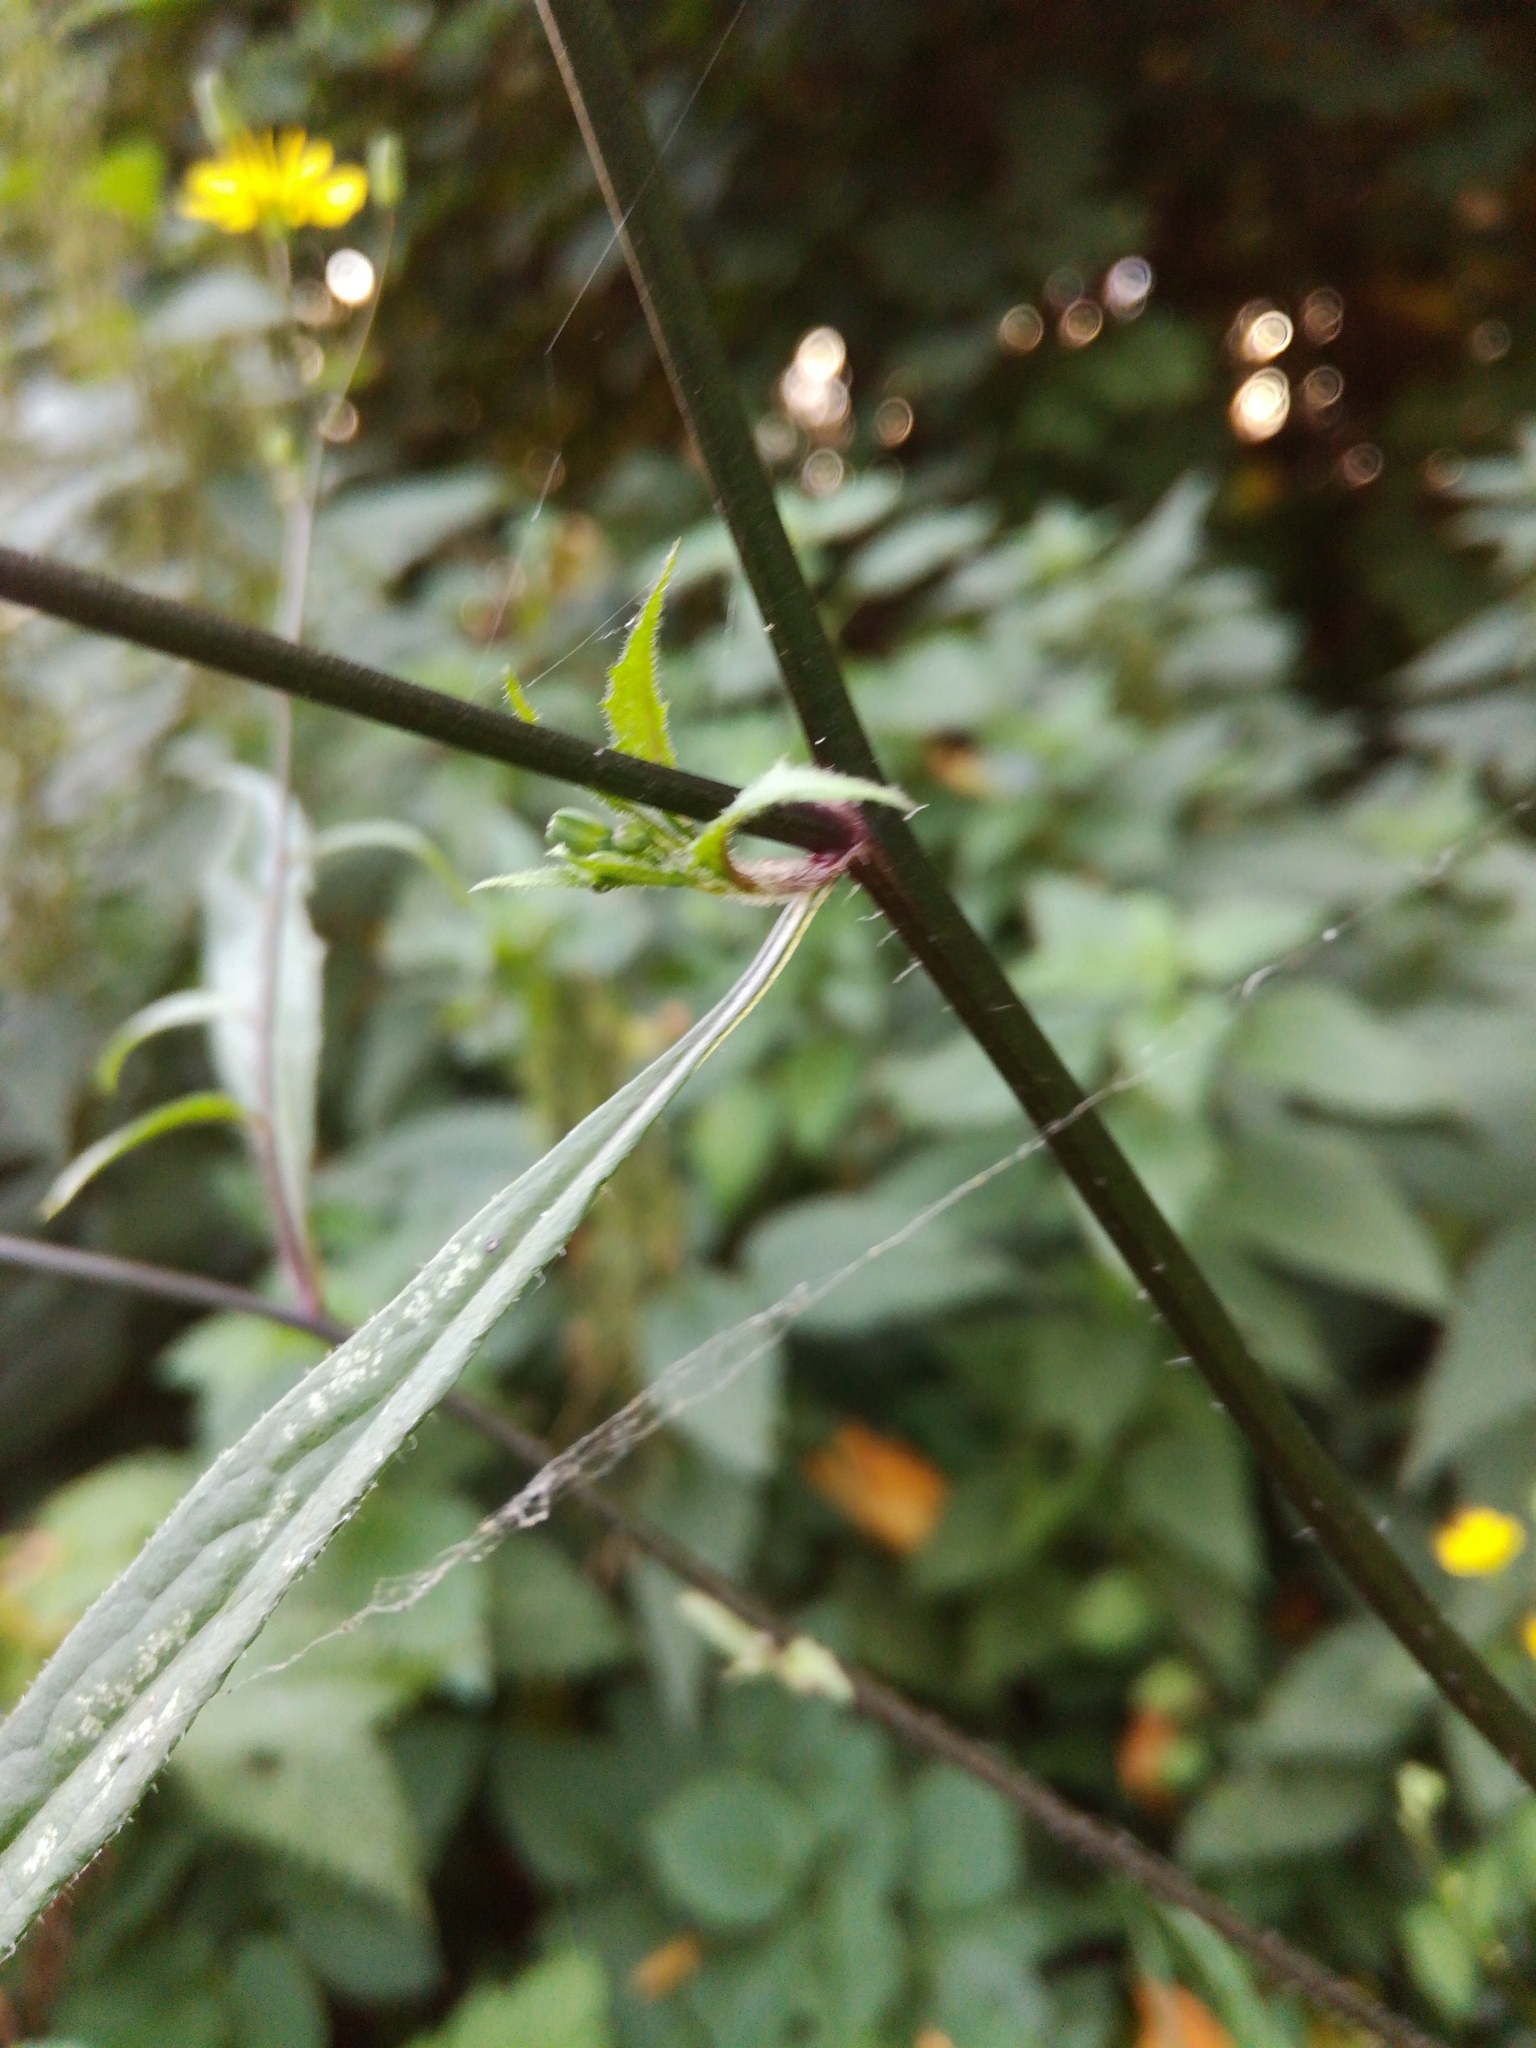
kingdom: Plantae
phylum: Tracheophyta
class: Magnoliopsida
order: Asterales
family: Asteraceae
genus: Lapsana
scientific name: Lapsana communis
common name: Nipplewort
